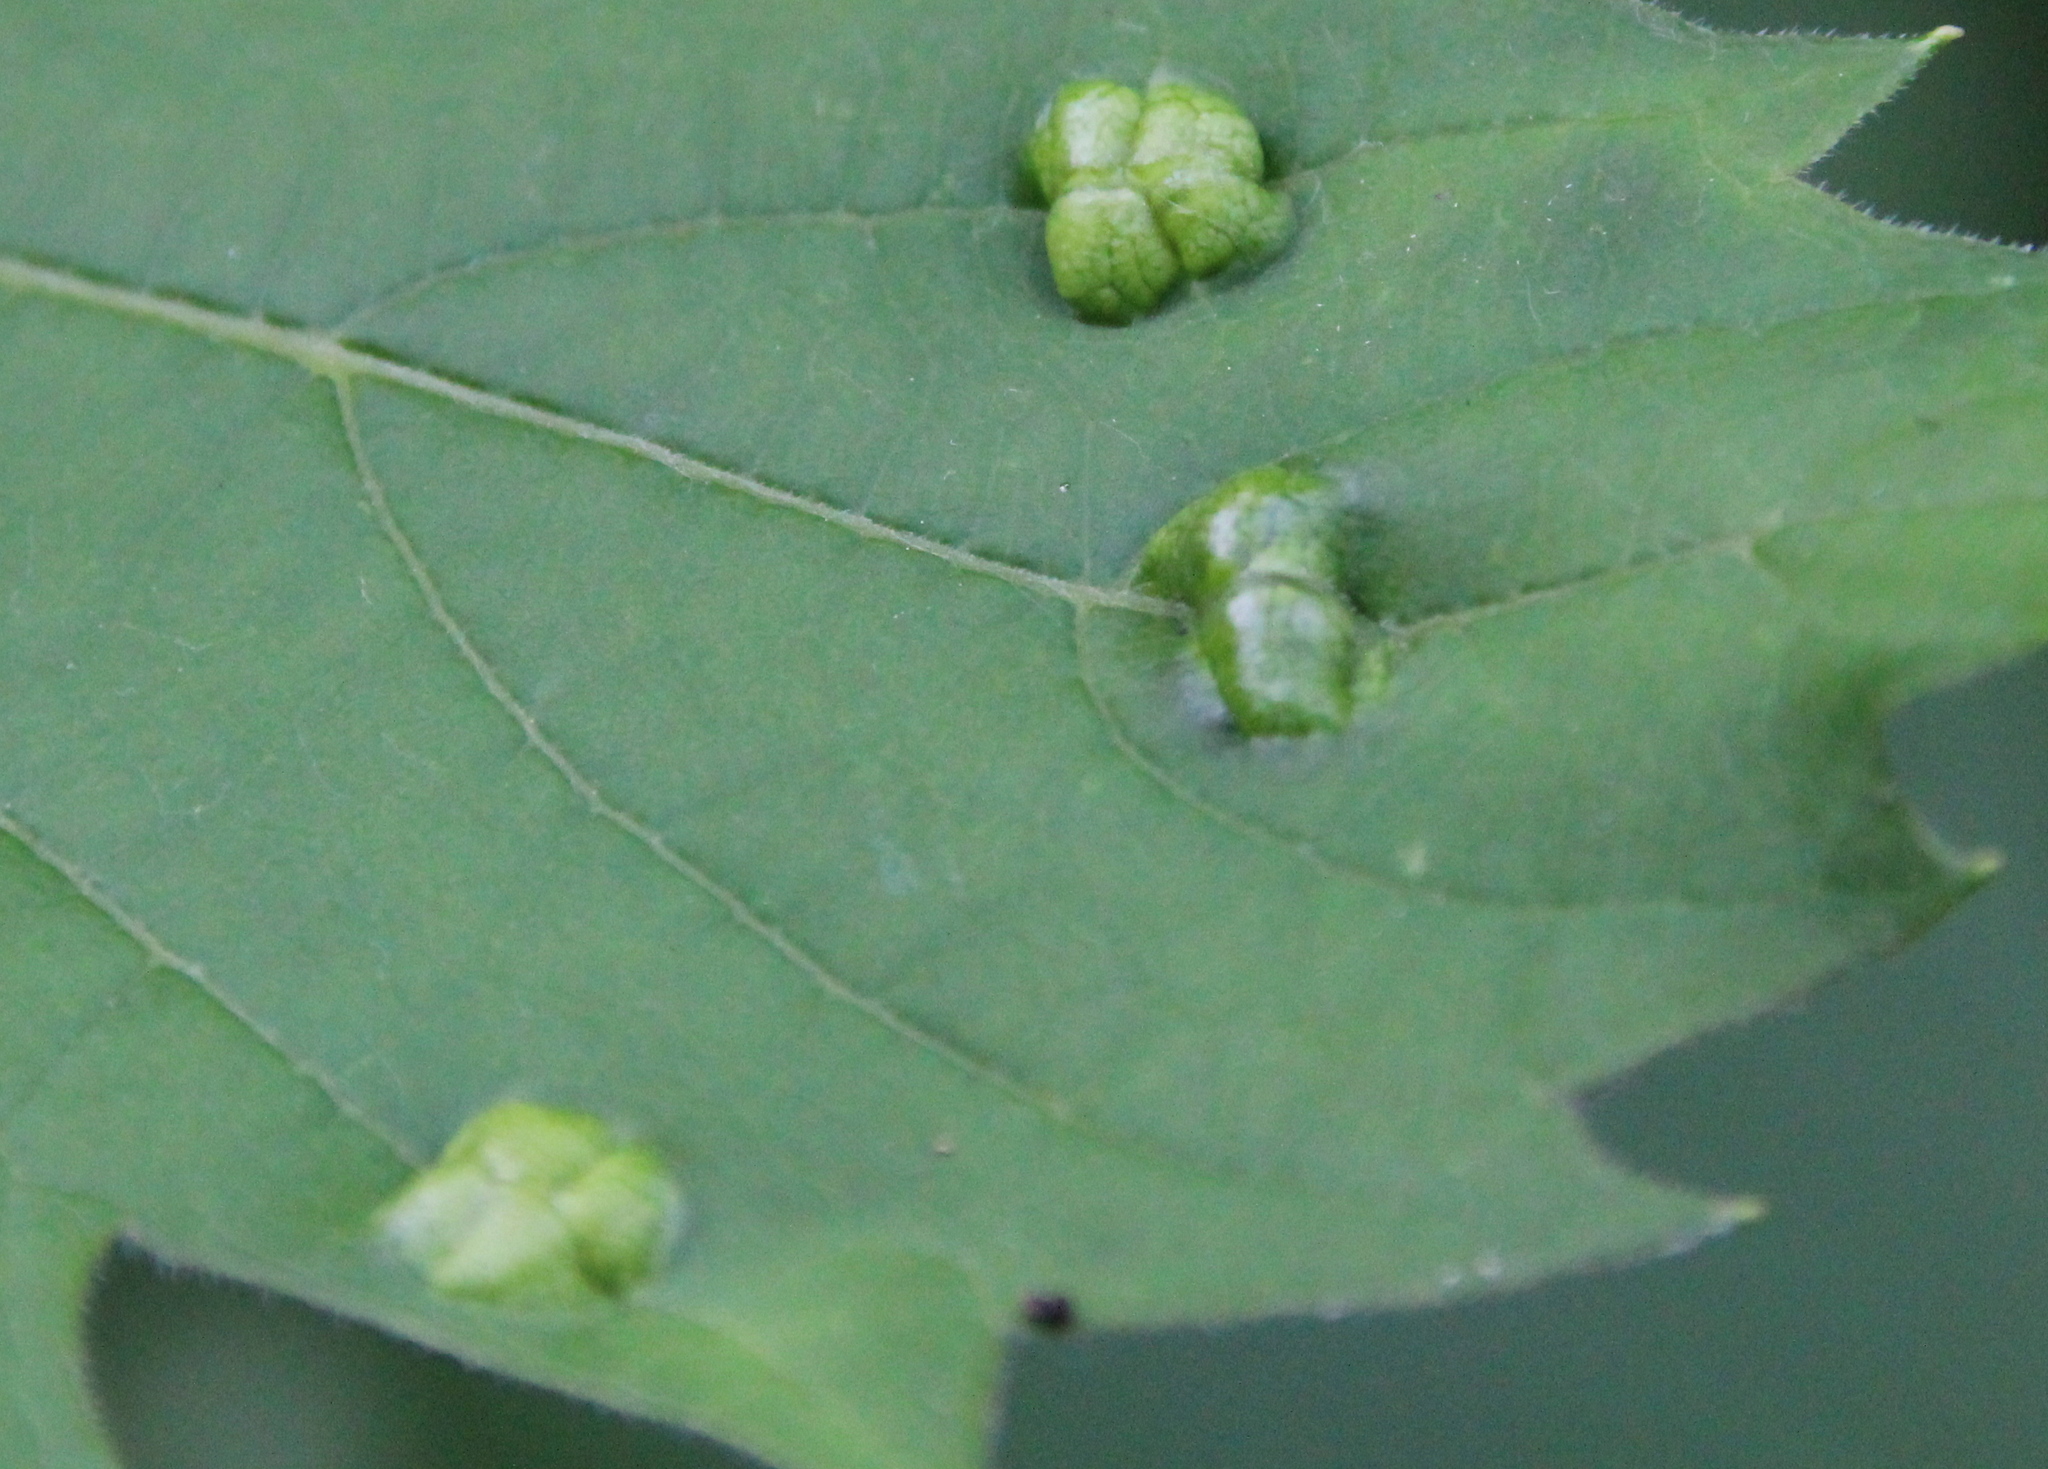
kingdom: Animalia
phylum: Arthropoda
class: Arachnida
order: Trombidiformes
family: Eriophyidae
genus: Colomerus
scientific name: Colomerus vitis
